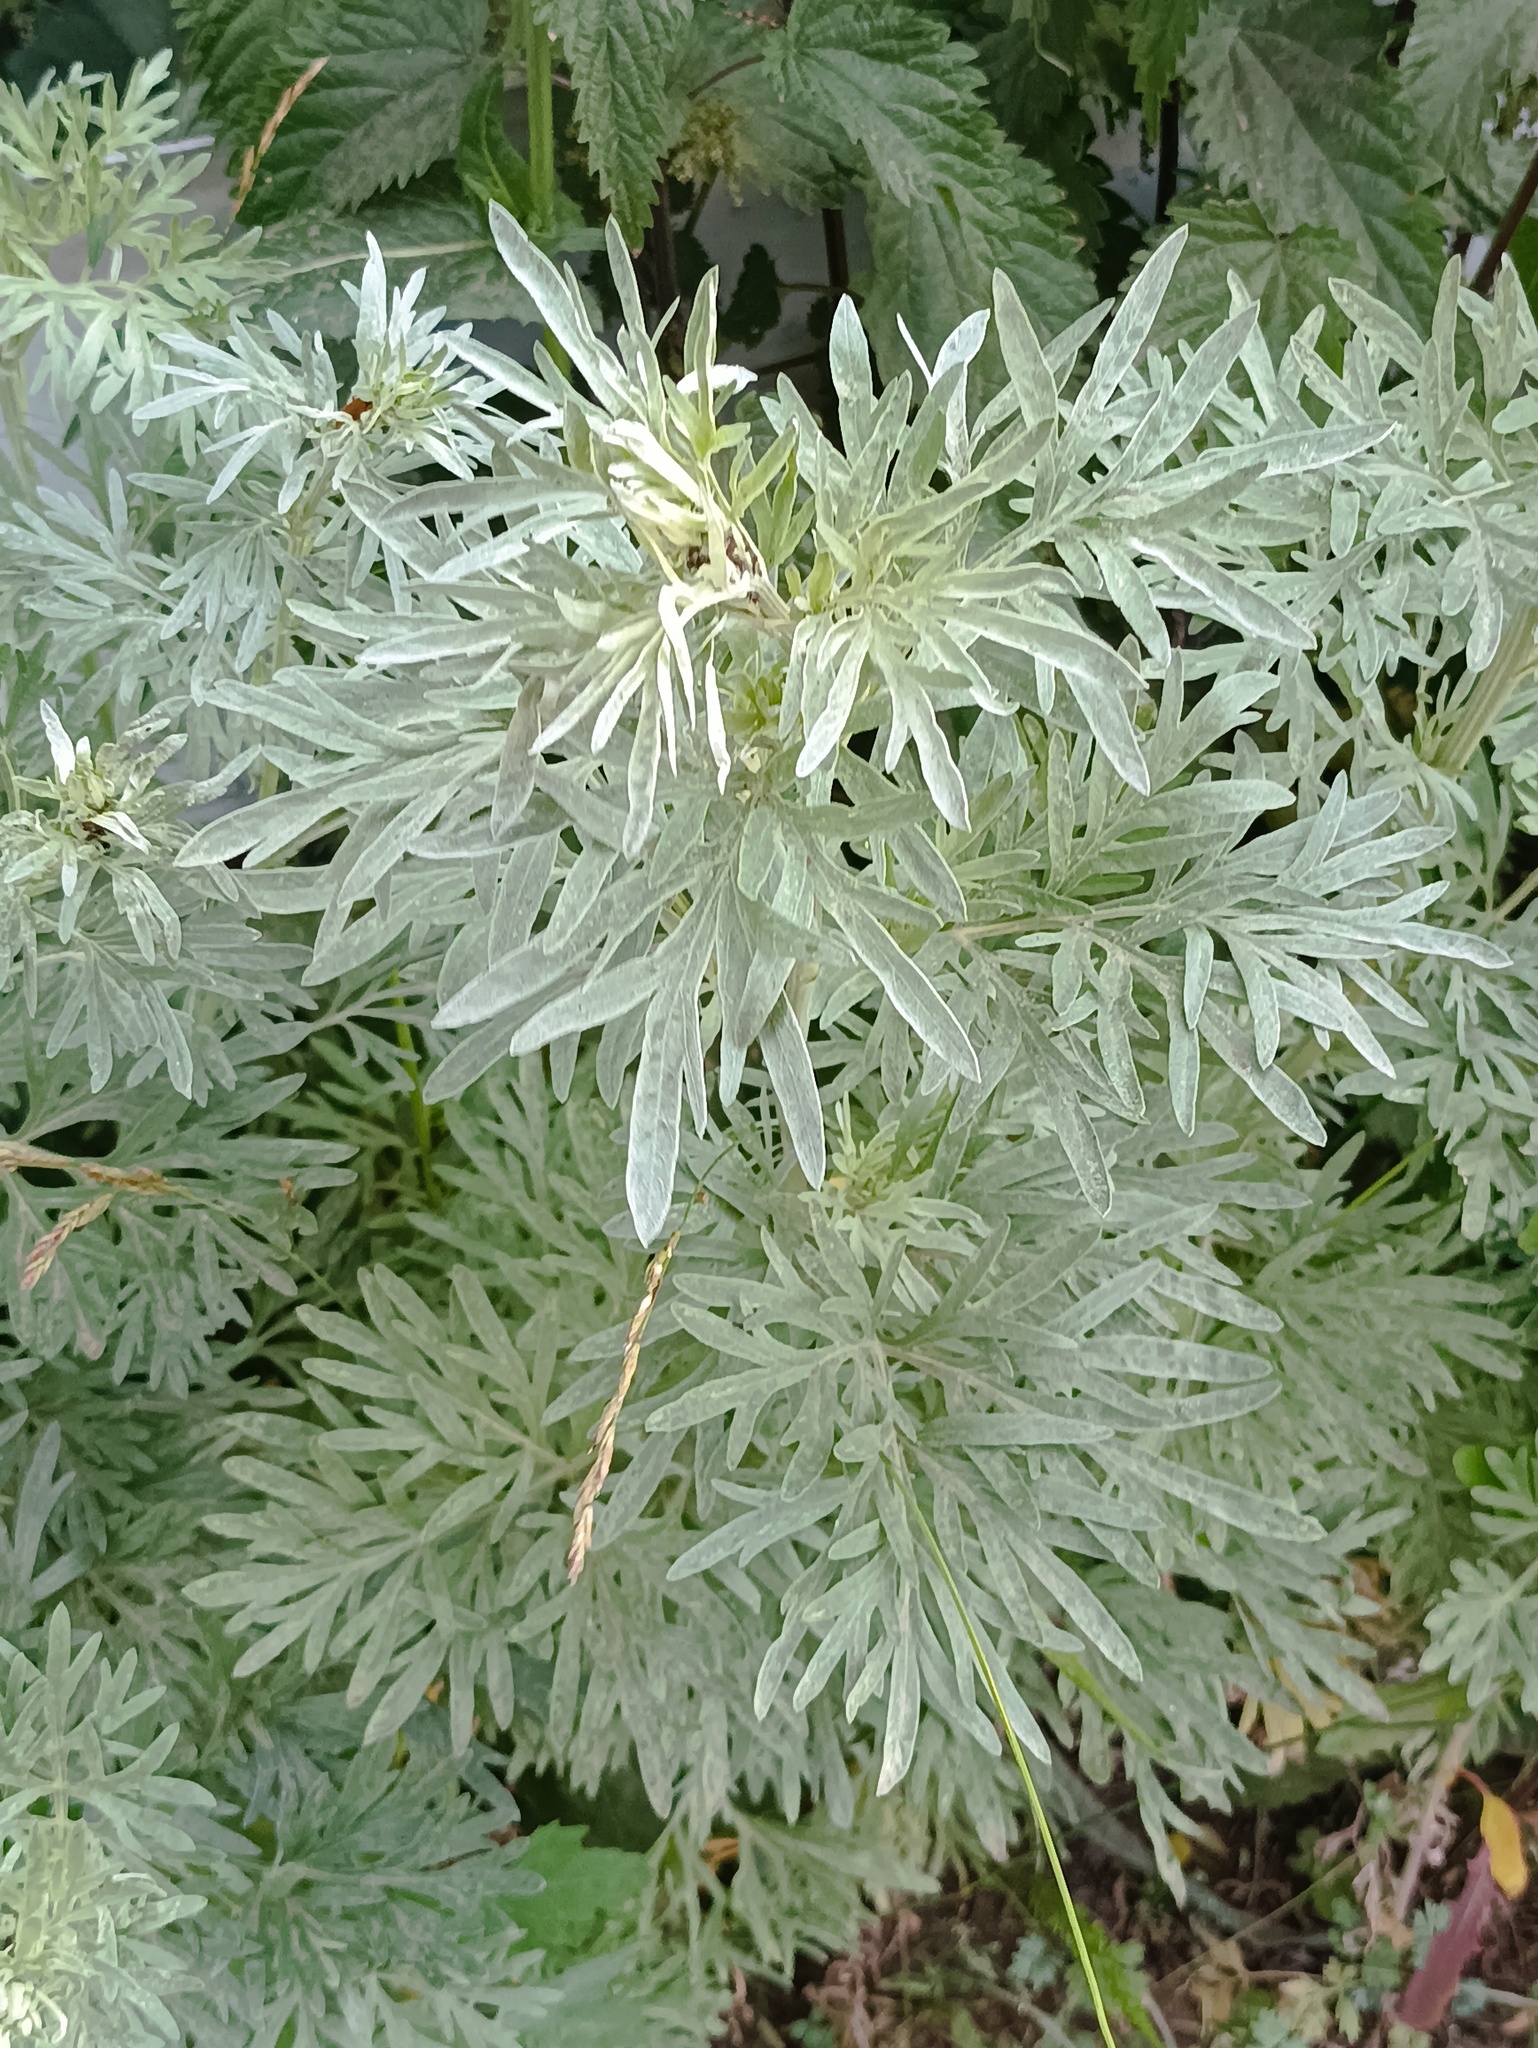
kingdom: Plantae
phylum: Tracheophyta
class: Magnoliopsida
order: Asterales
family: Asteraceae
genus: Artemisia
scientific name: Artemisia absinthium
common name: Wormwood
